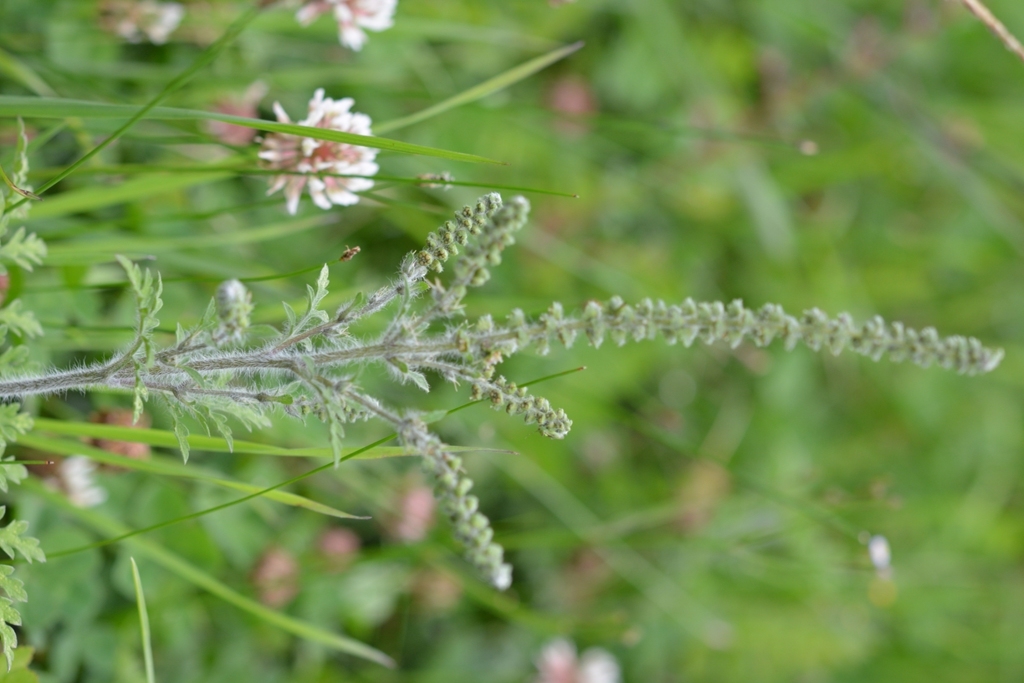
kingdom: Plantae
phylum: Tracheophyta
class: Magnoliopsida
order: Asterales
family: Asteraceae
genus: Ambrosia
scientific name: Ambrosia
